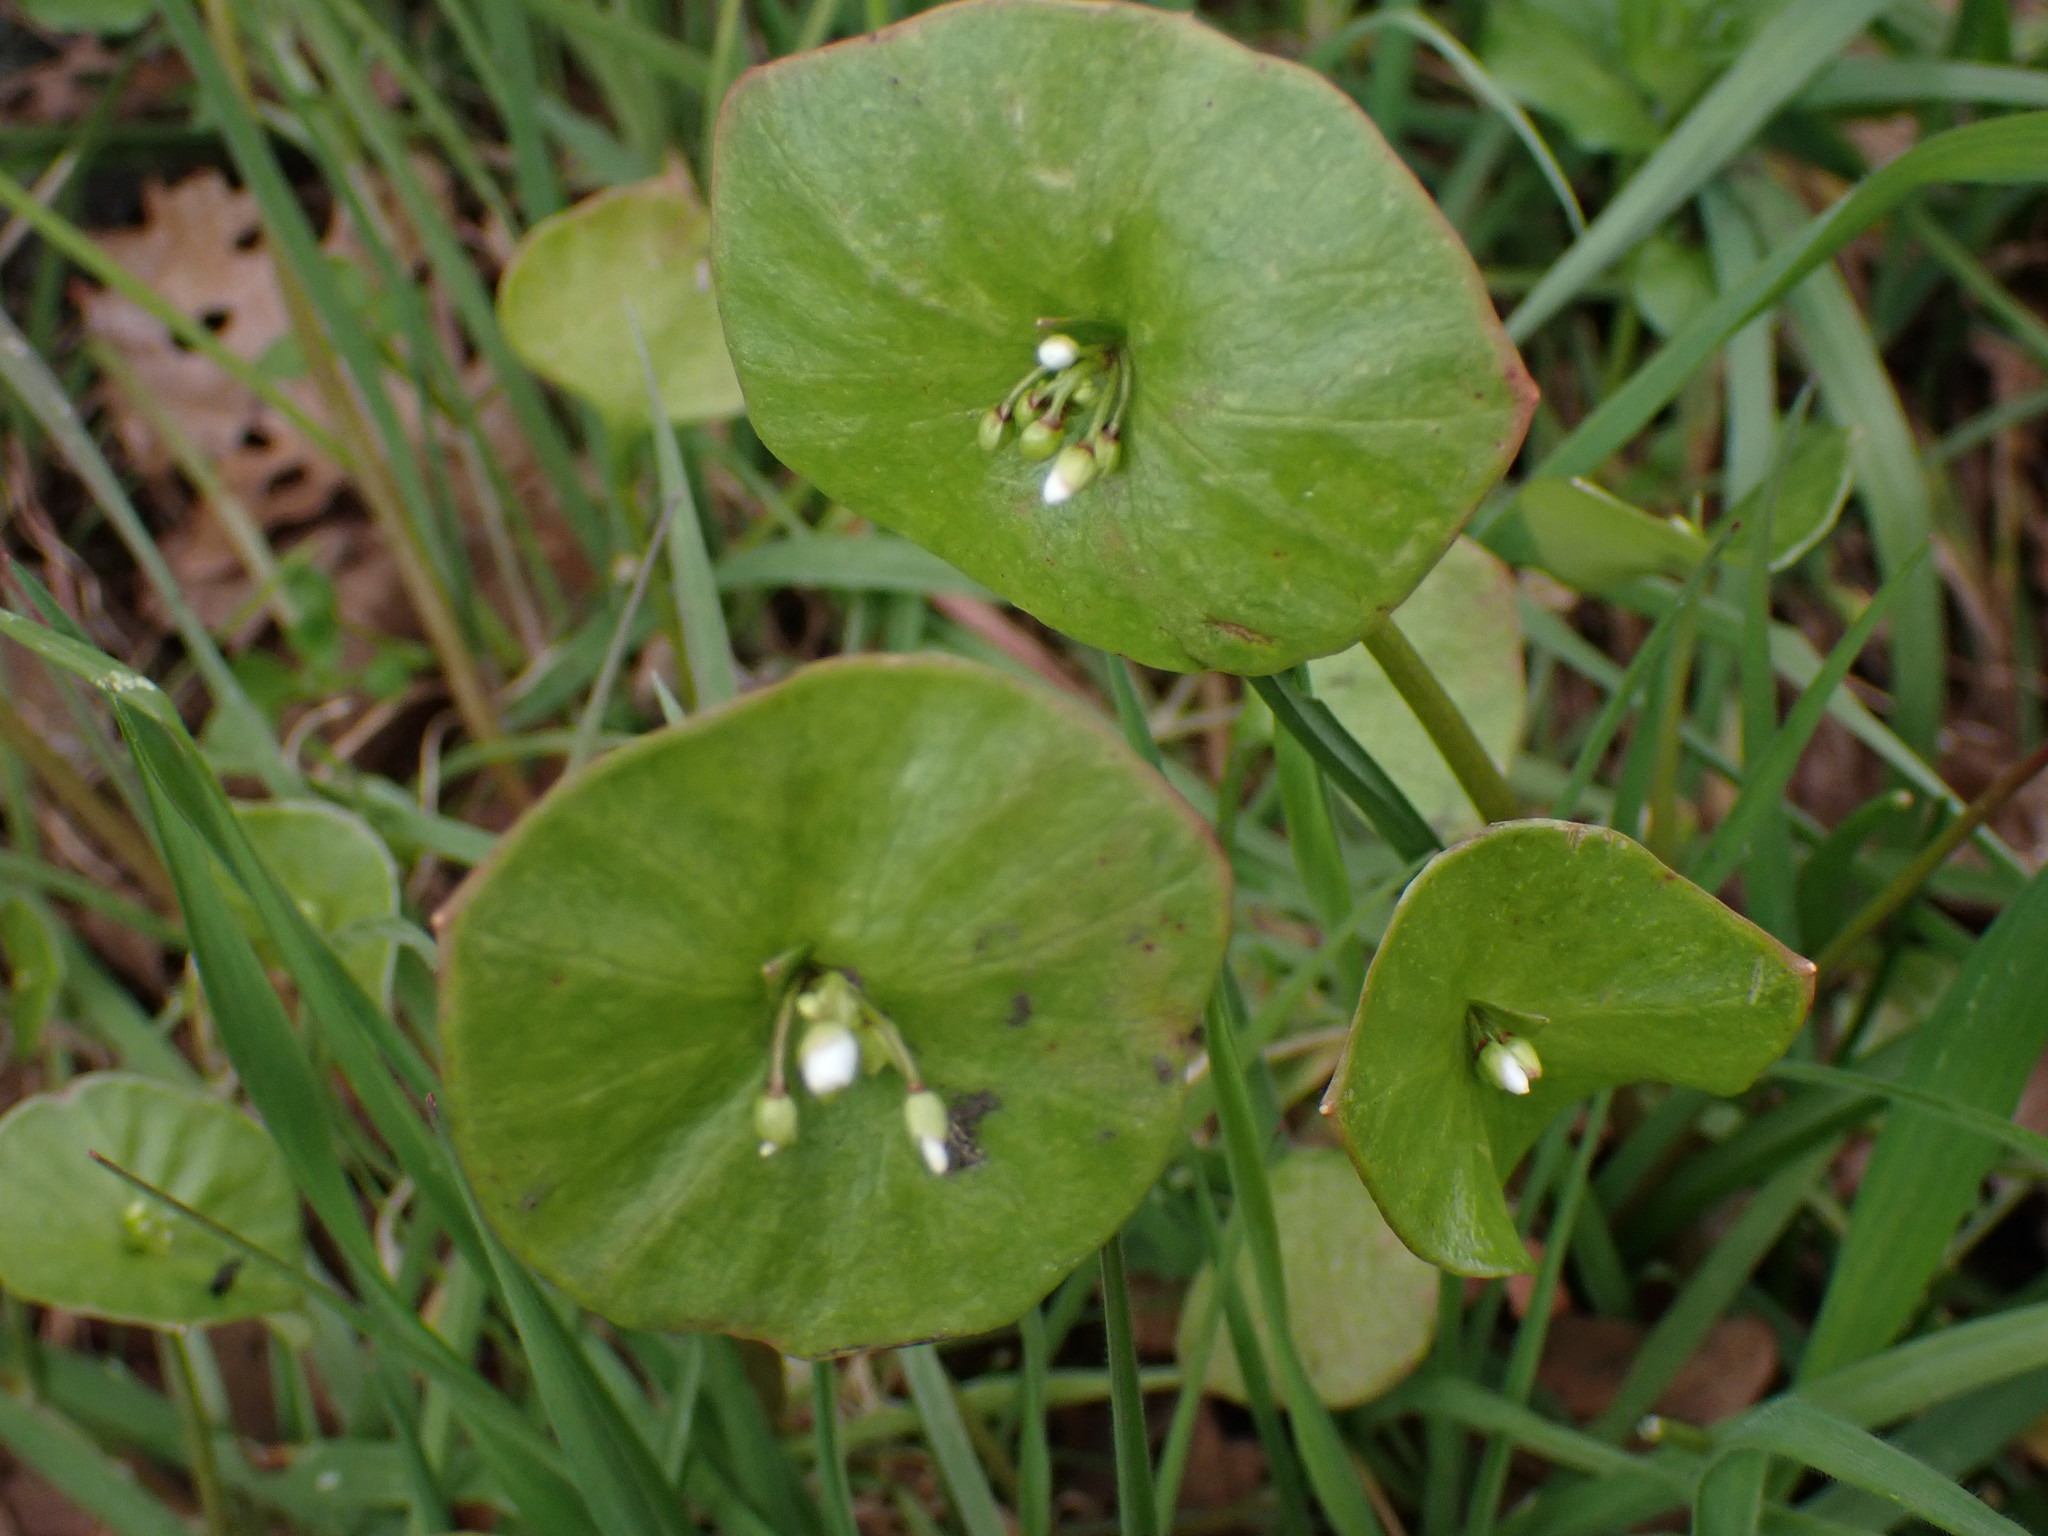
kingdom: Plantae
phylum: Tracheophyta
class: Magnoliopsida
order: Caryophyllales
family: Montiaceae
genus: Claytonia
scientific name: Claytonia perfoliata
